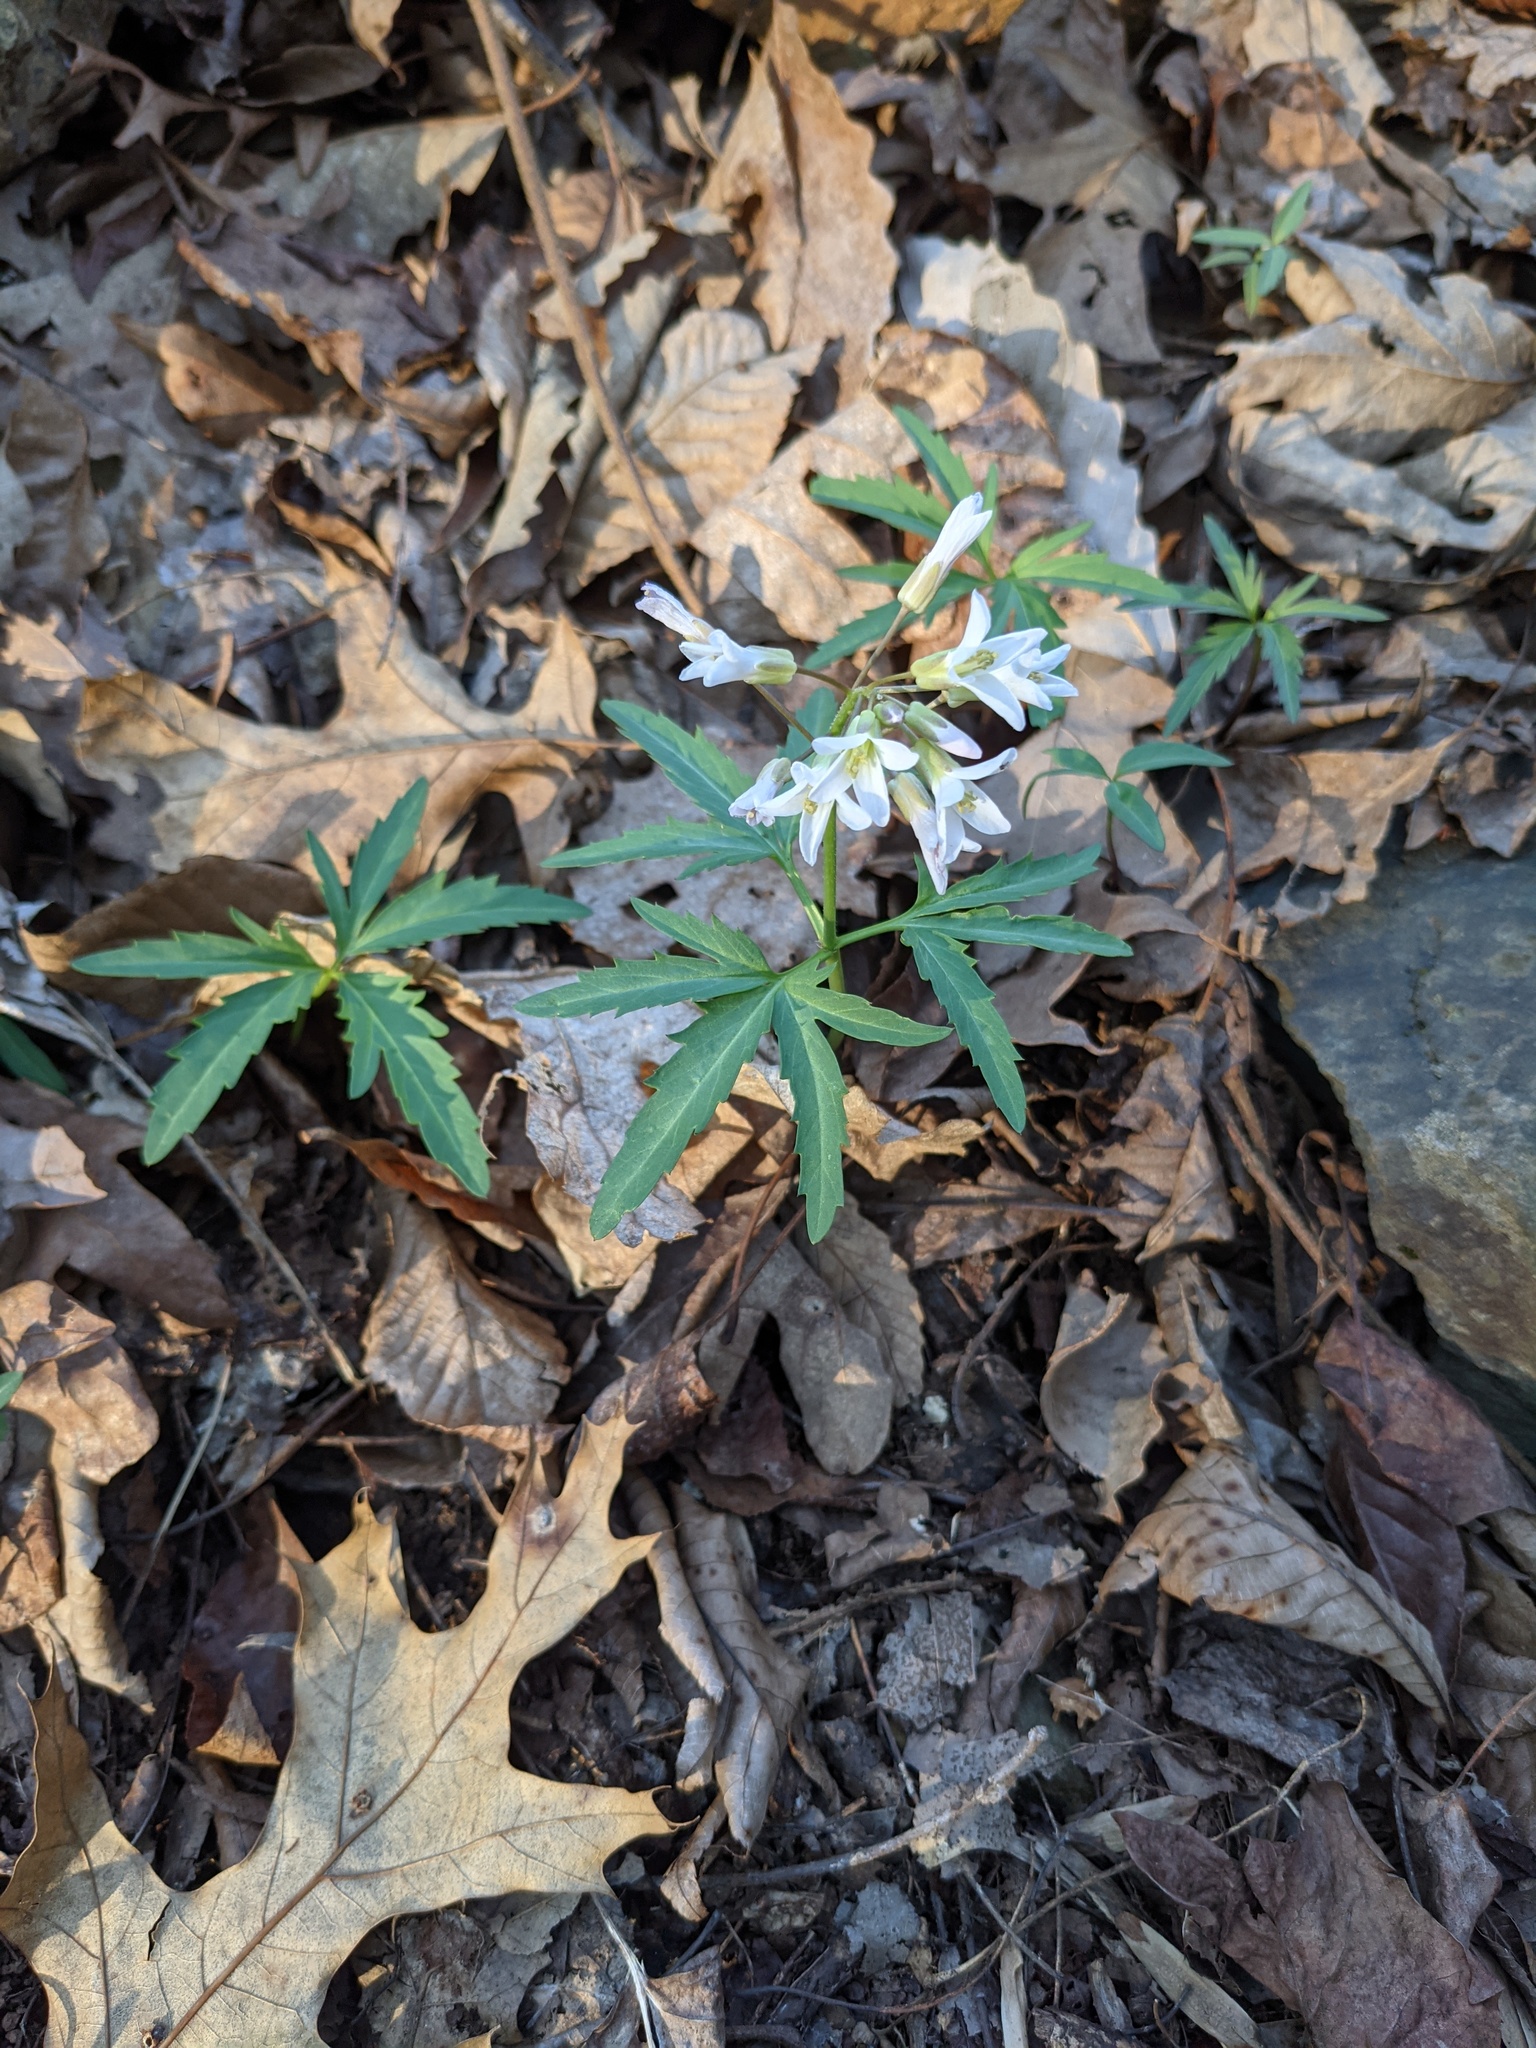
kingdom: Plantae
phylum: Tracheophyta
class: Magnoliopsida
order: Brassicales
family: Brassicaceae
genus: Cardamine
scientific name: Cardamine concatenata
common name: Cut-leaf toothcup
